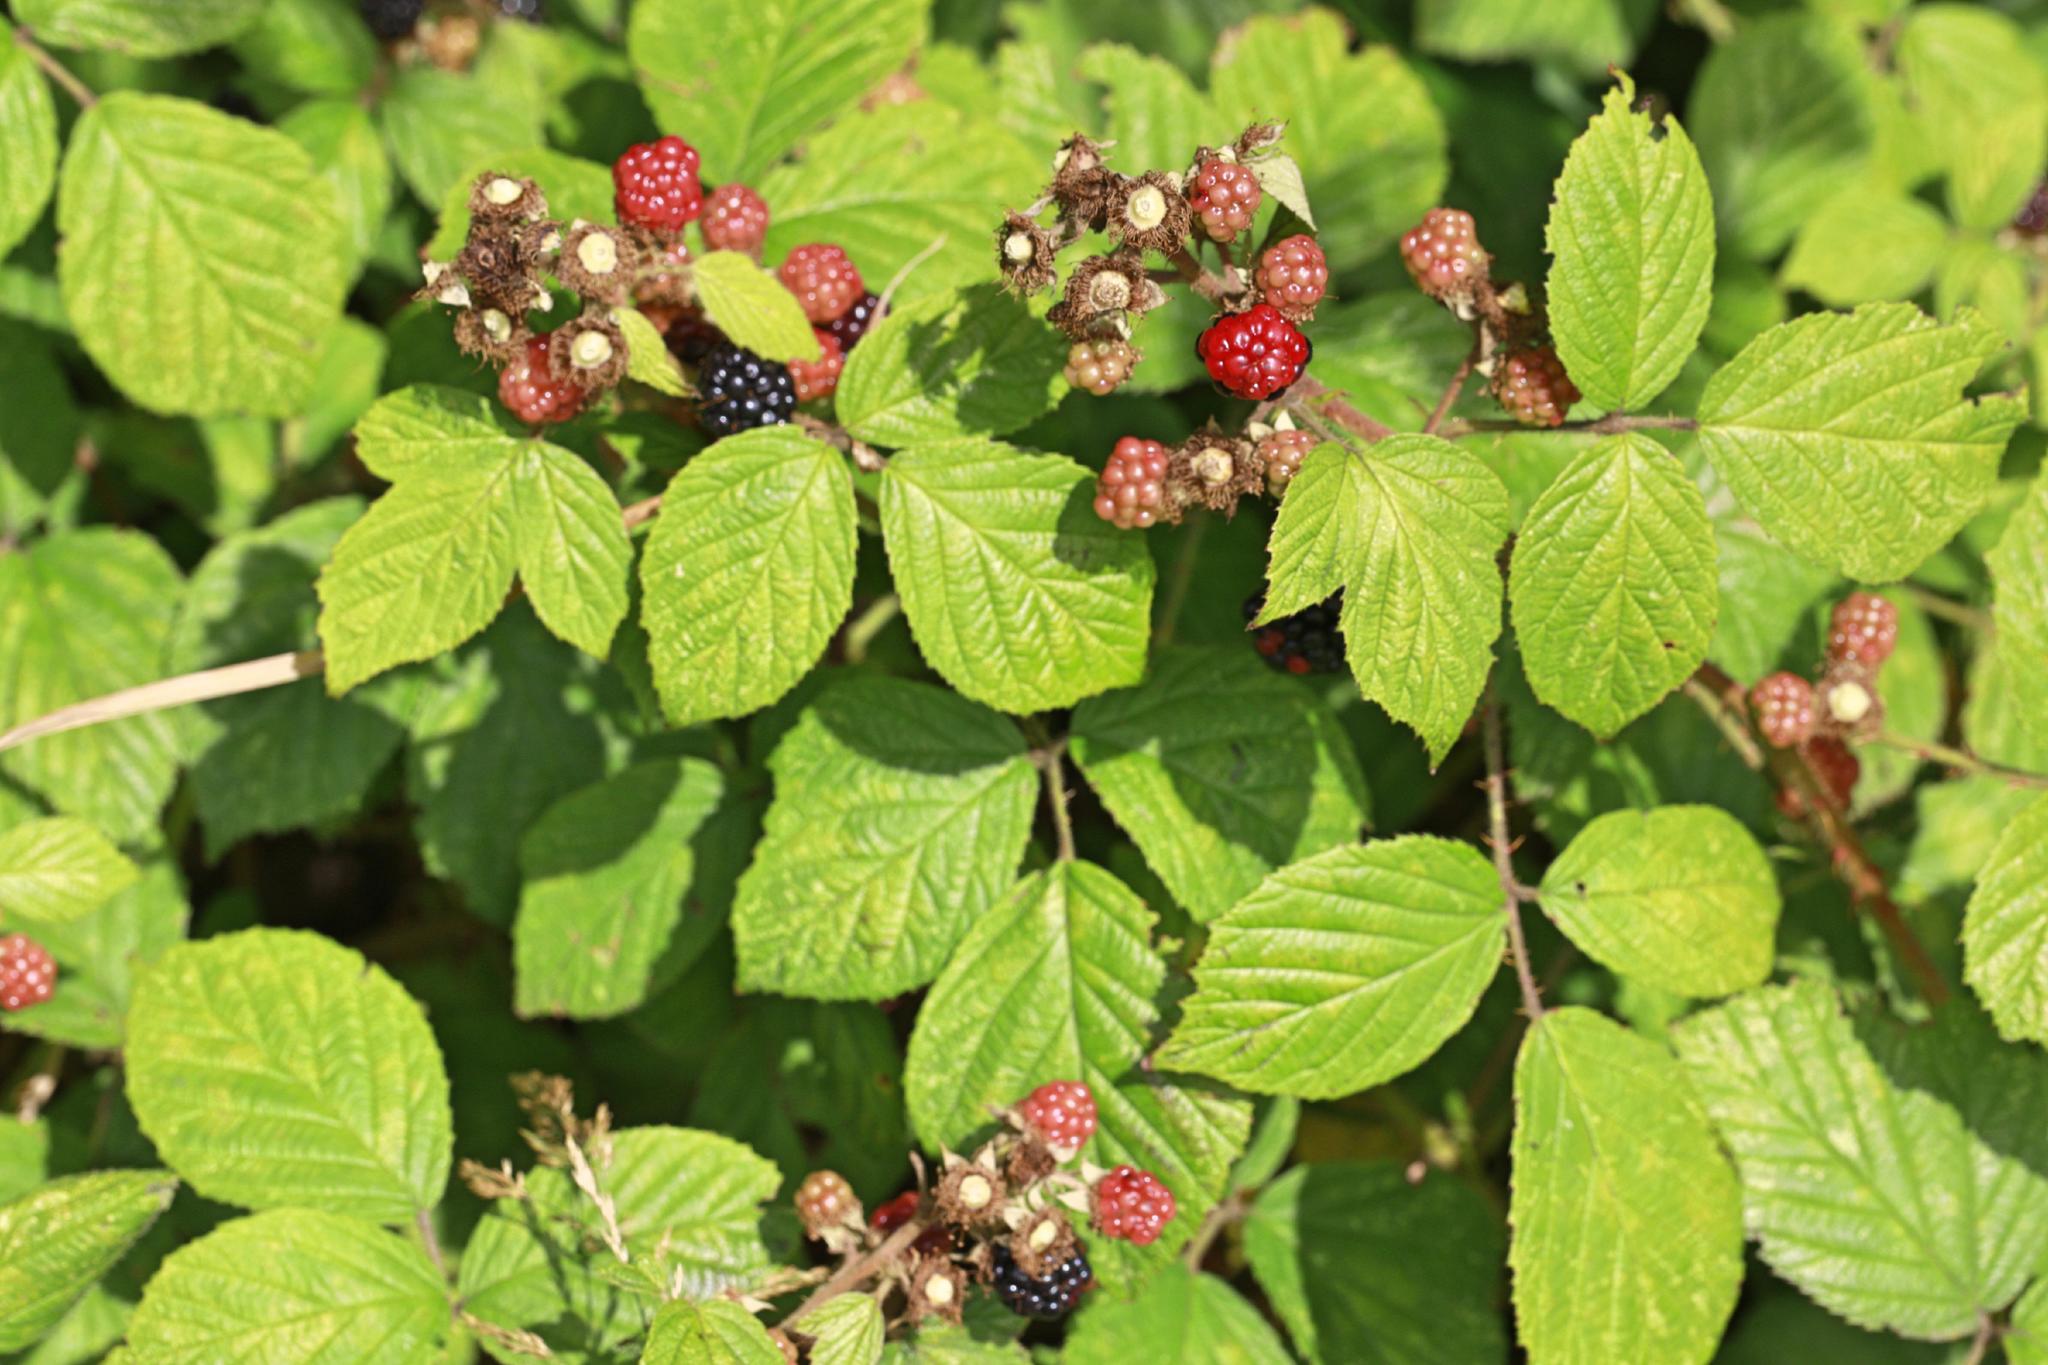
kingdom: Plantae
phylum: Tracheophyta
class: Magnoliopsida
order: Rosales
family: Rosaceae
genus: Rubus
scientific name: Rubus fruticosus
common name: Blackberry, bramble
